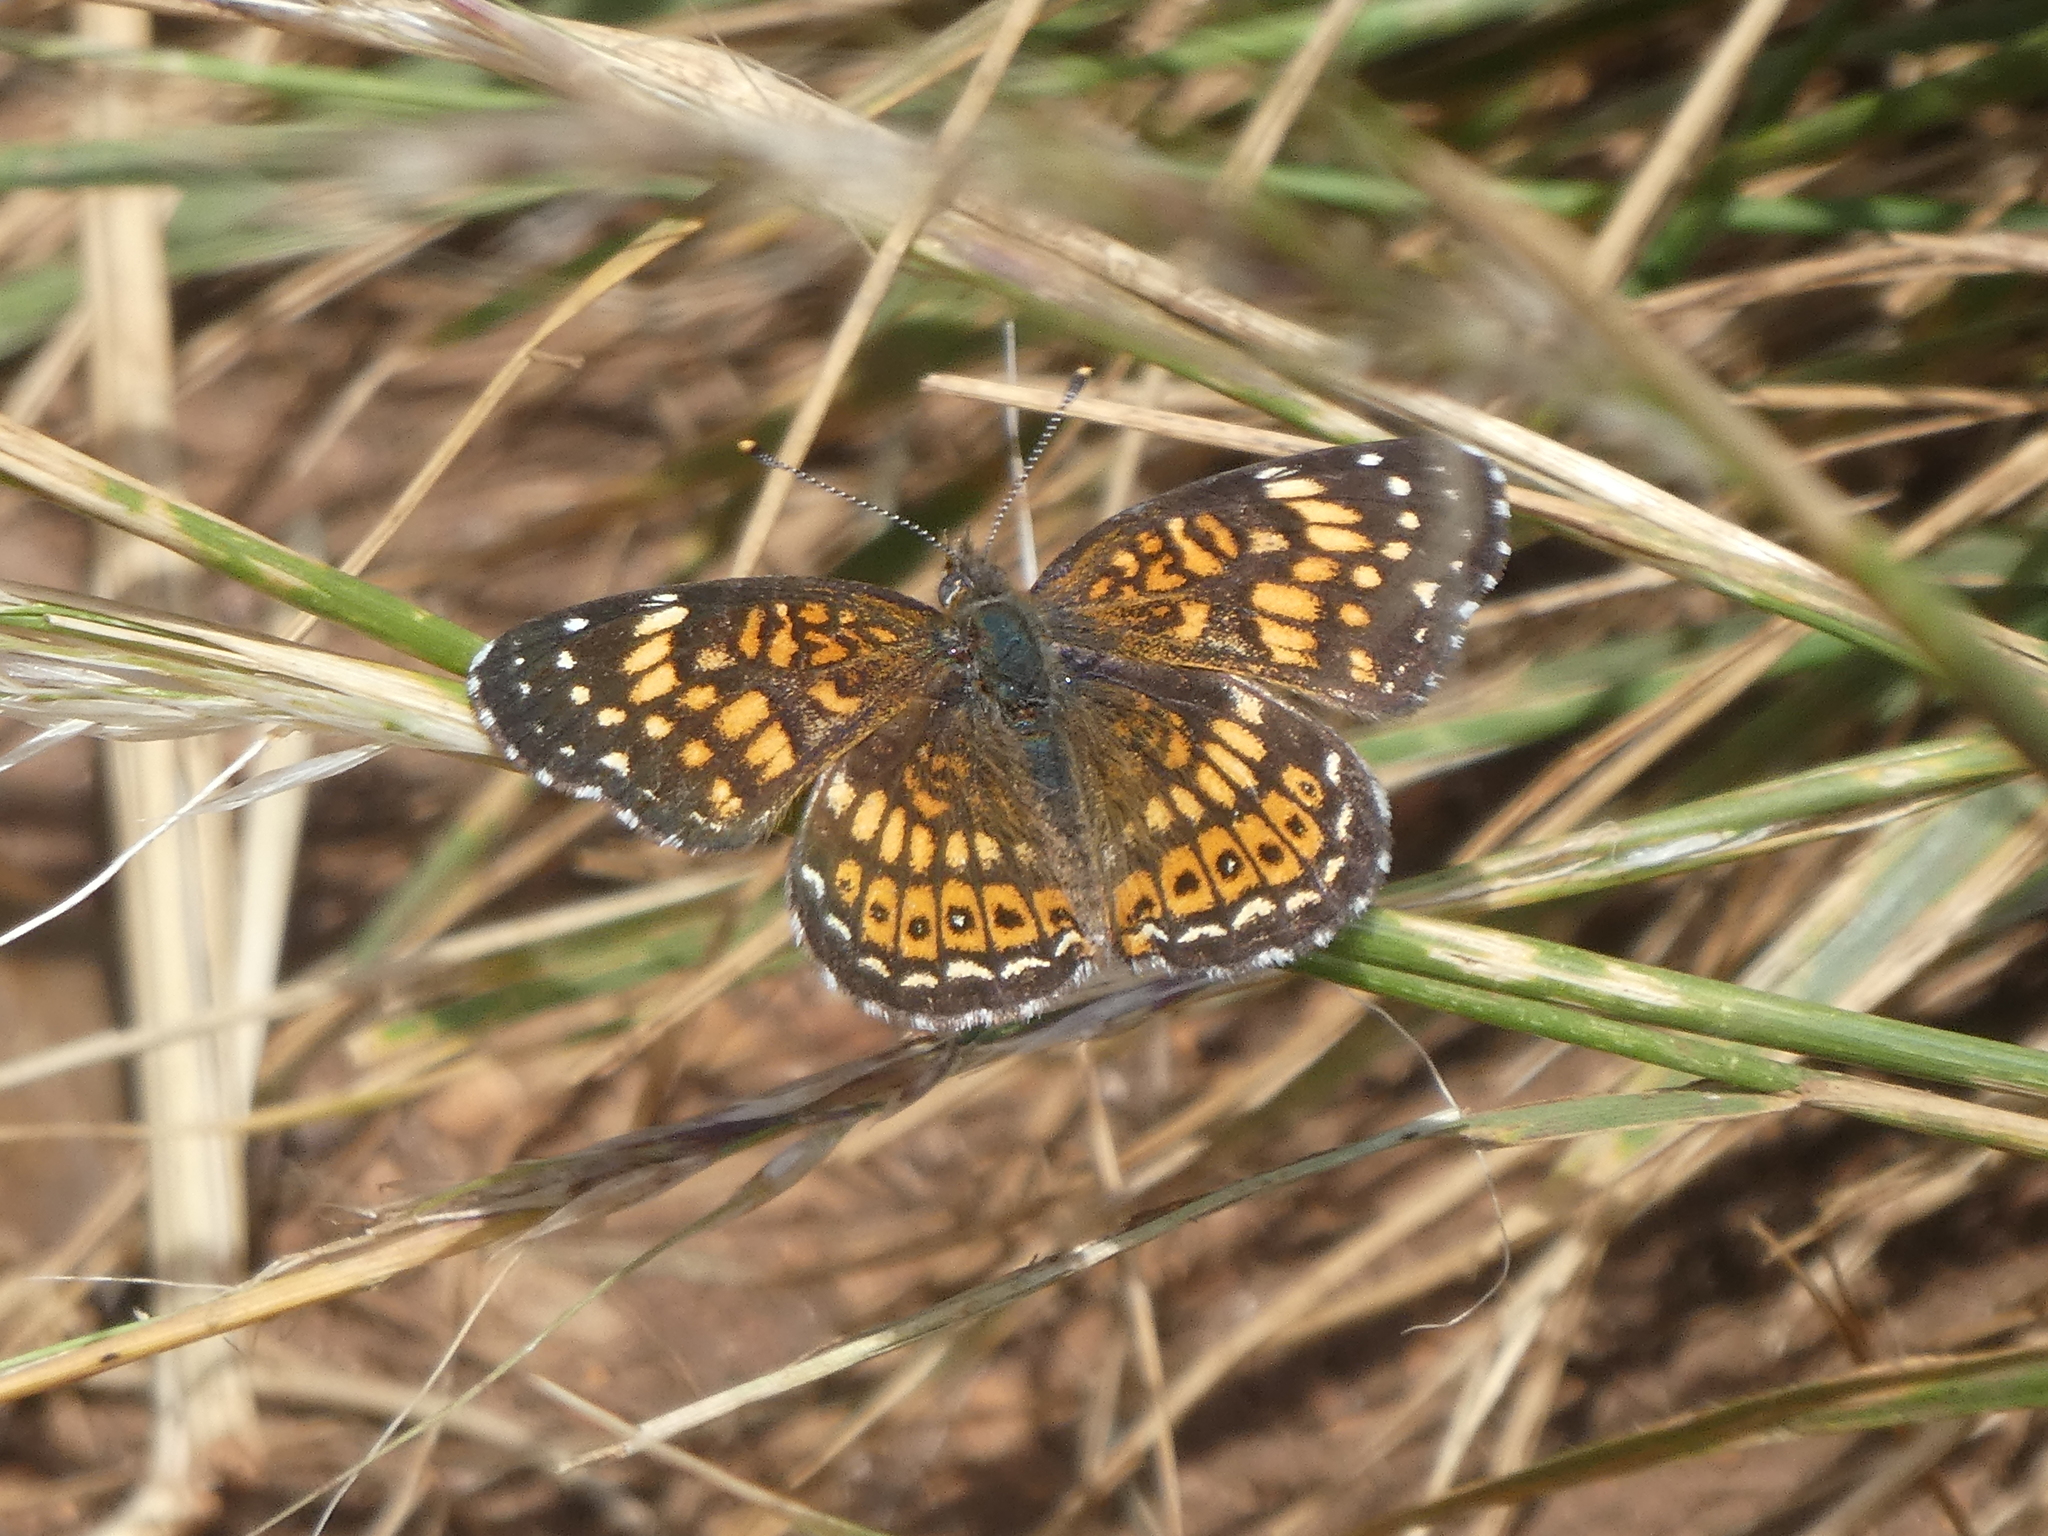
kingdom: Animalia
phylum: Arthropoda
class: Insecta
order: Lepidoptera
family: Nymphalidae
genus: Chlosyne
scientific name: Chlosyne
